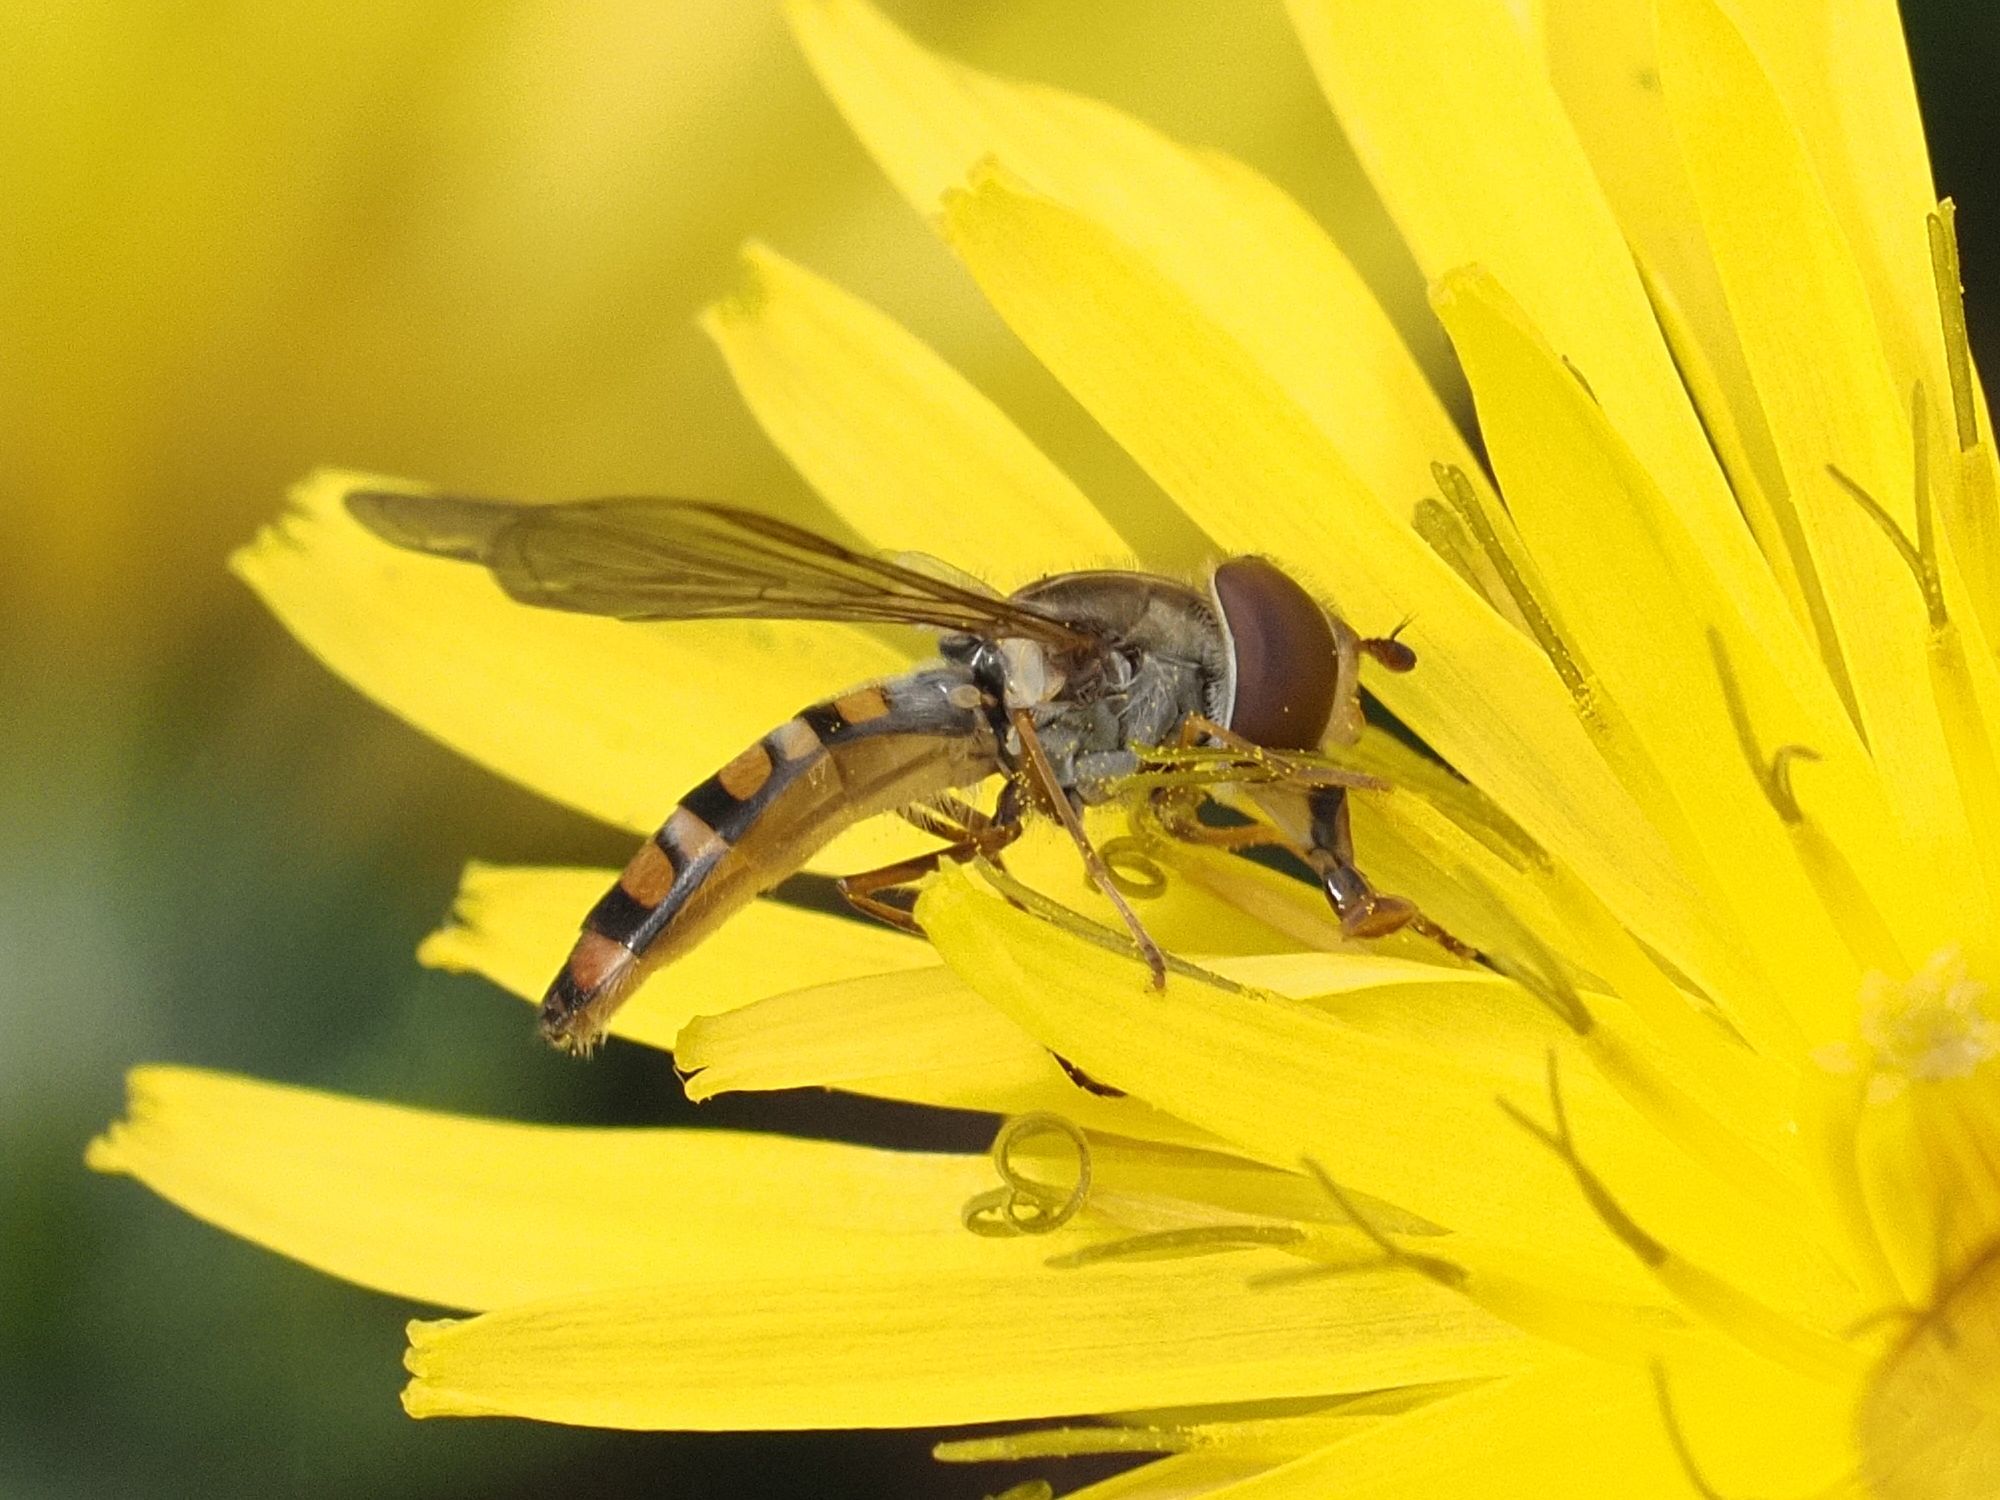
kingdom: Animalia
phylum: Arthropoda
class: Insecta
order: Diptera
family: Syrphidae
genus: Episyrphus
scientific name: Episyrphus balteatus
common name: Marmalade hoverfly
